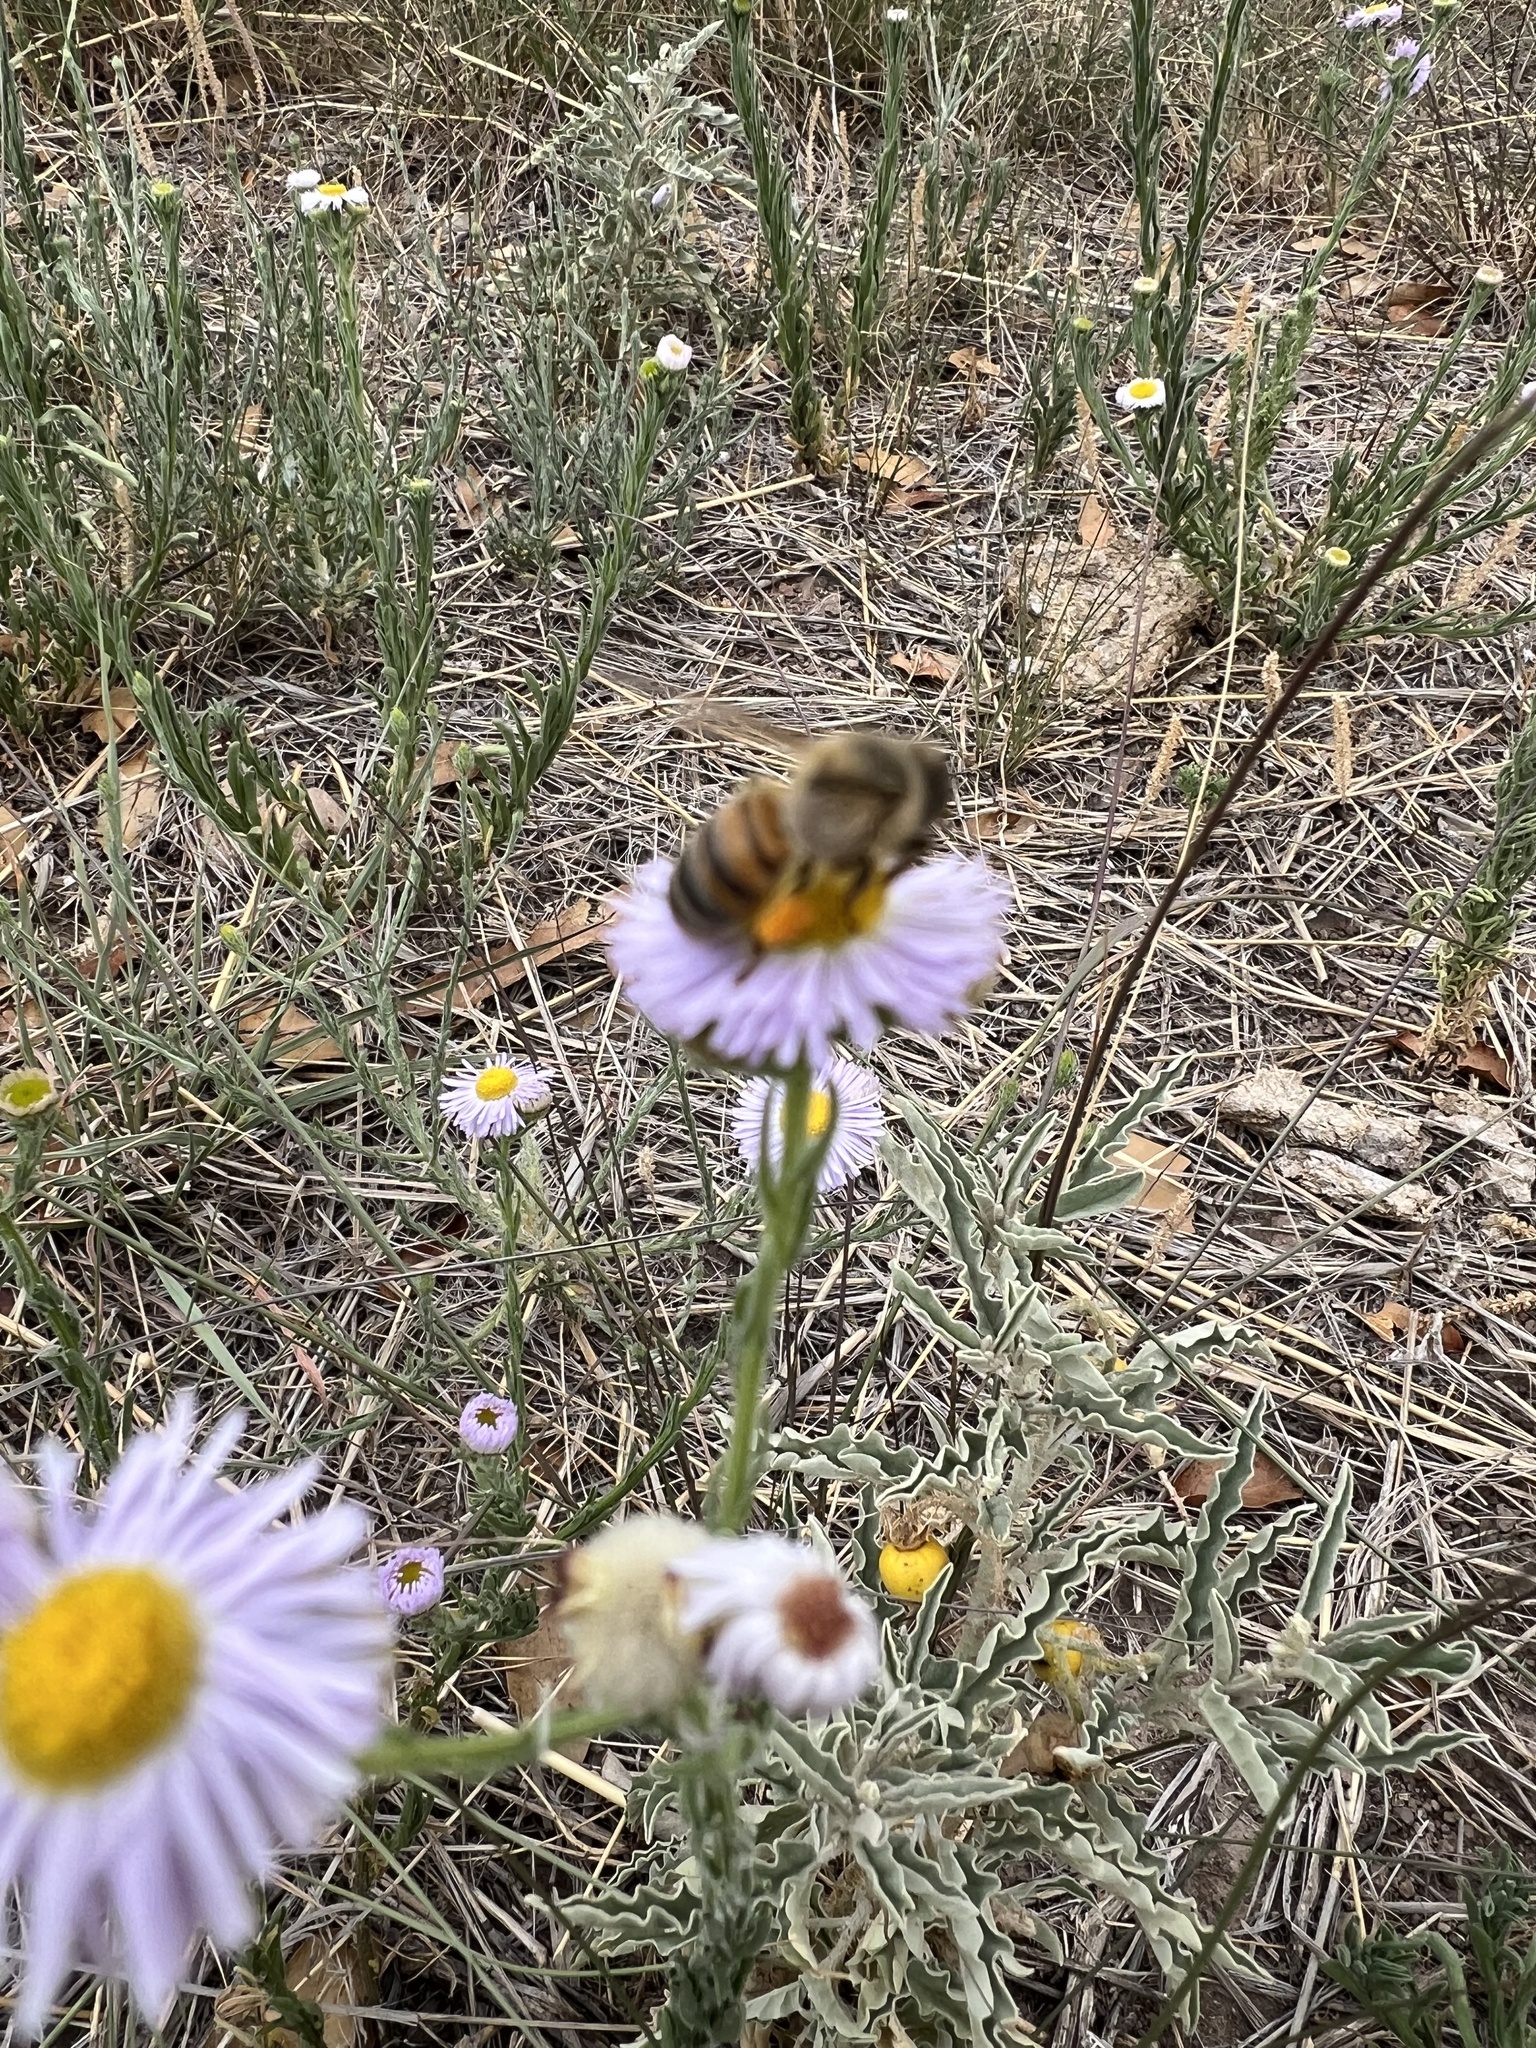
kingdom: Animalia
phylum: Arthropoda
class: Insecta
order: Hymenoptera
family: Apidae
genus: Apis
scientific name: Apis mellifera
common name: Honey bee
